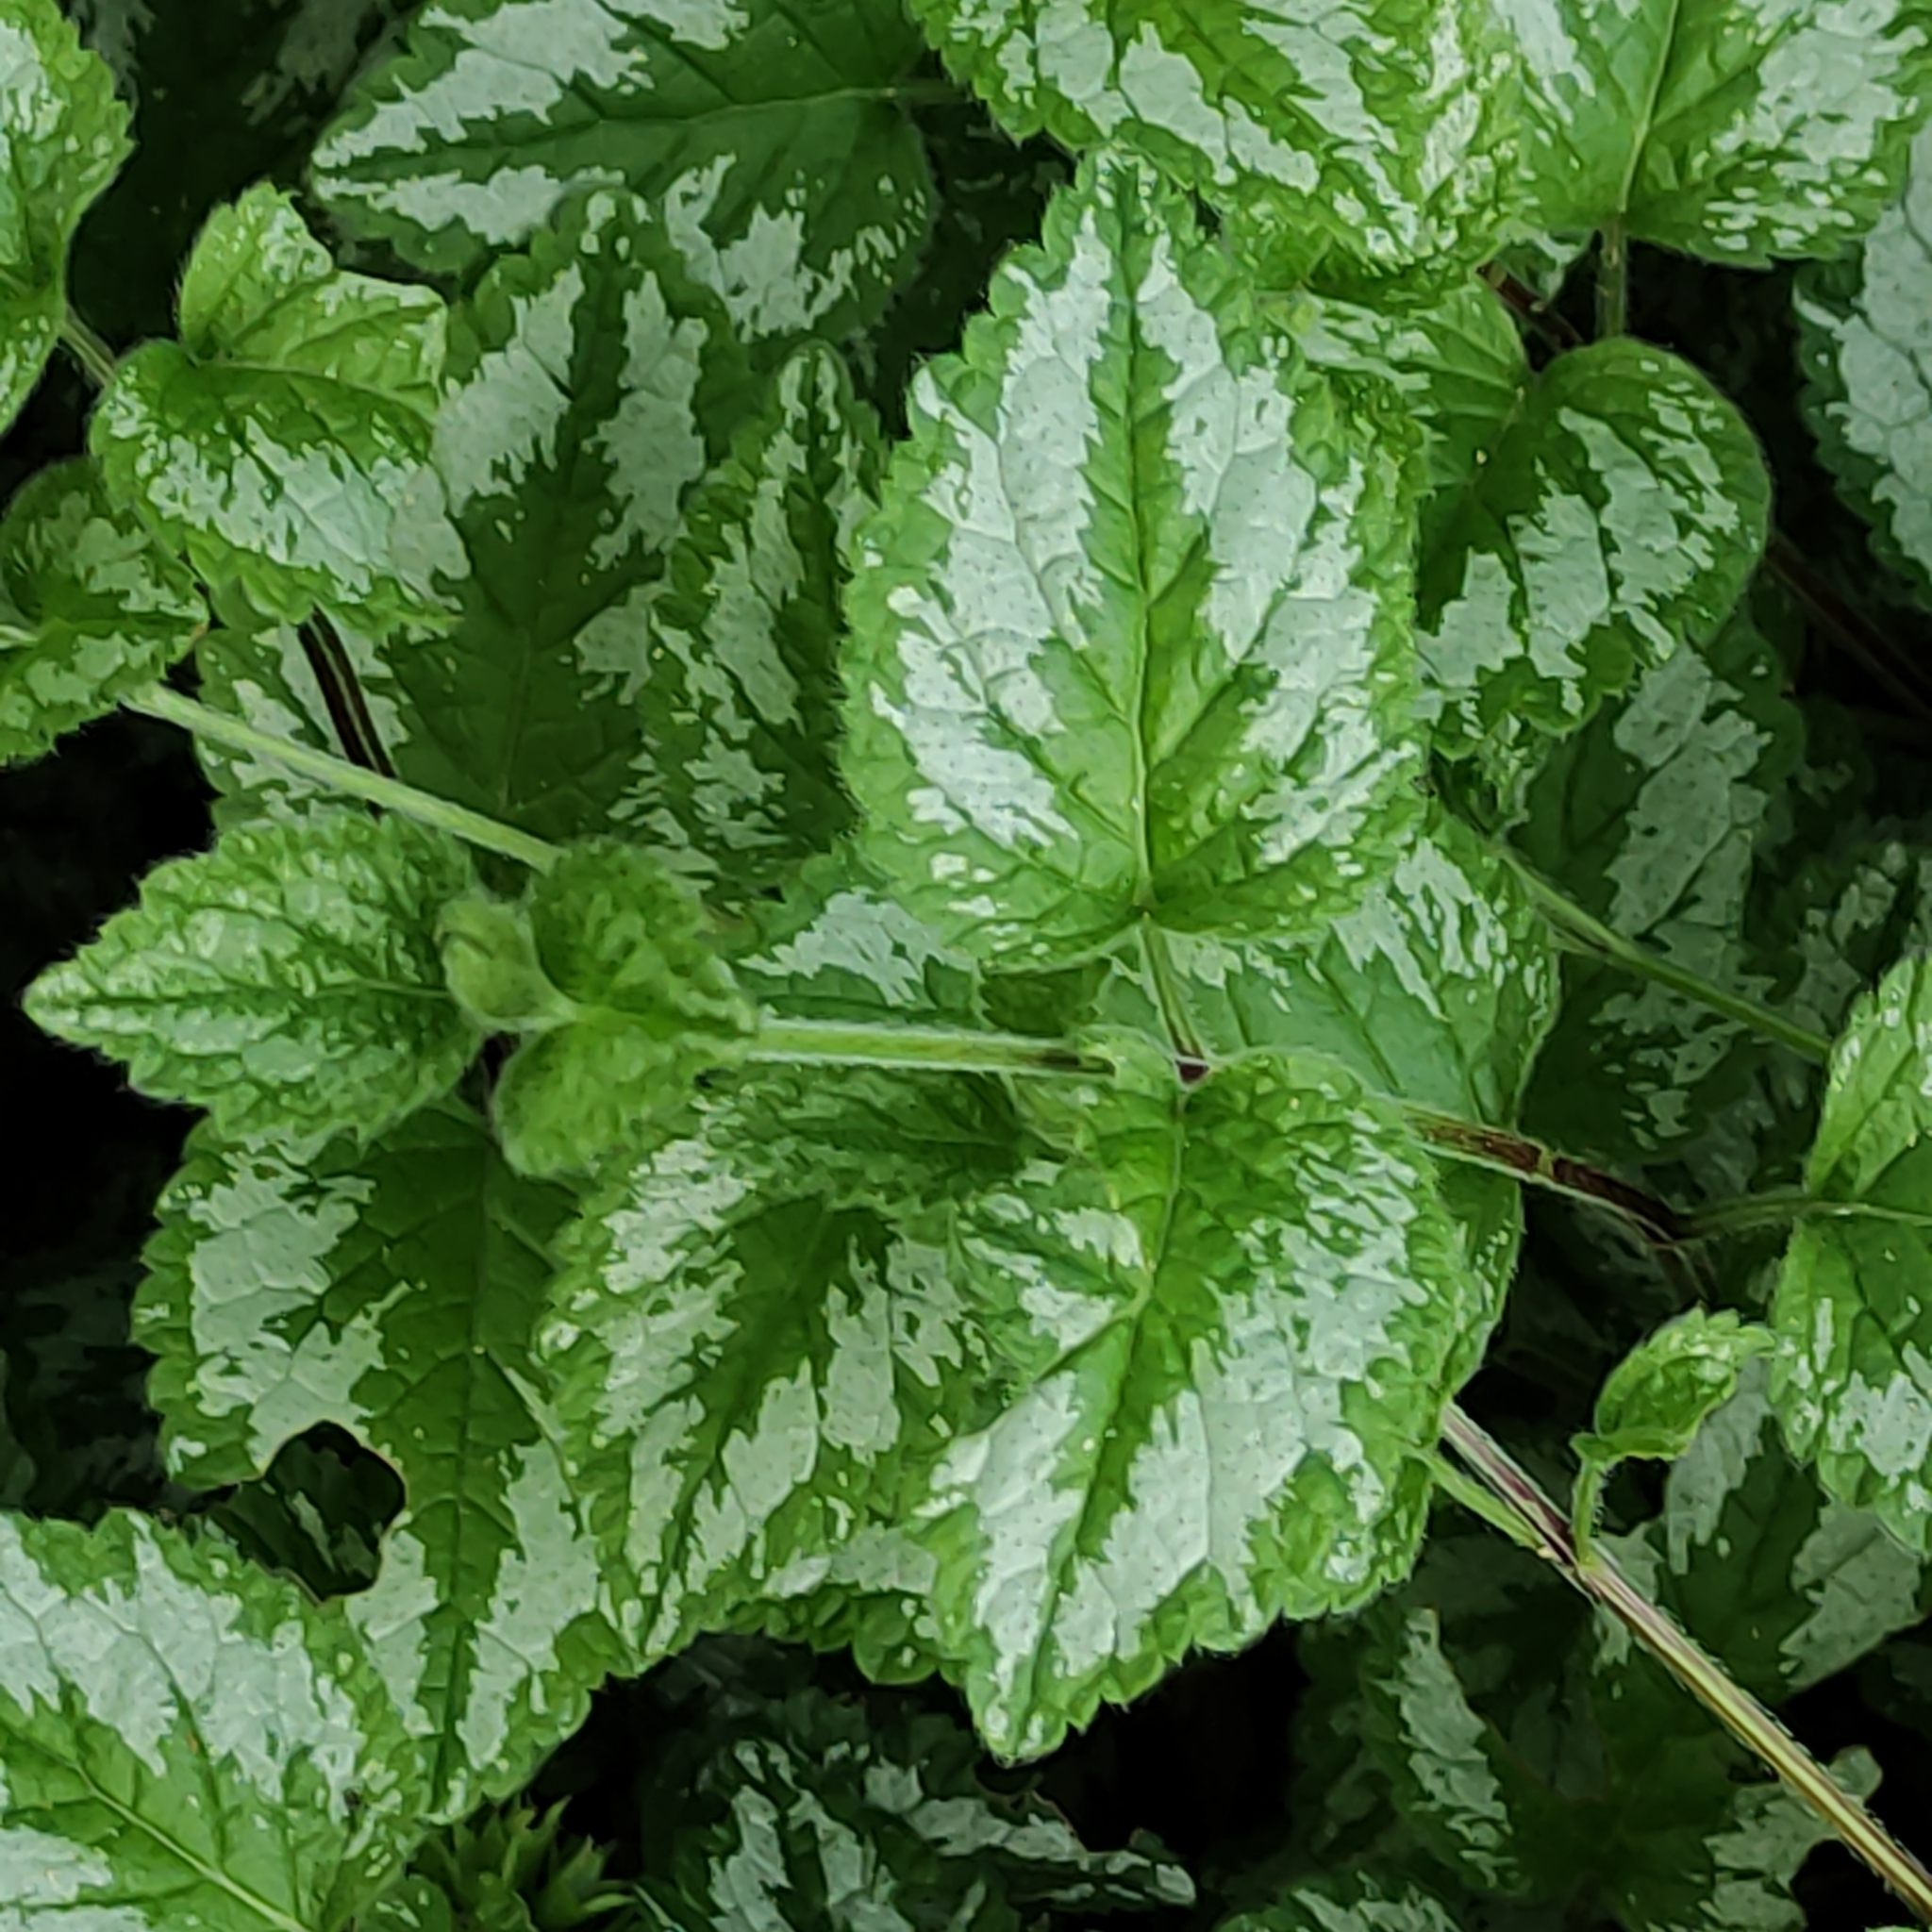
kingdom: Plantae
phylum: Tracheophyta
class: Magnoliopsida
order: Lamiales
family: Lamiaceae
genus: Lamium
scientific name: Lamium galeobdolon
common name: Yellow archangel
